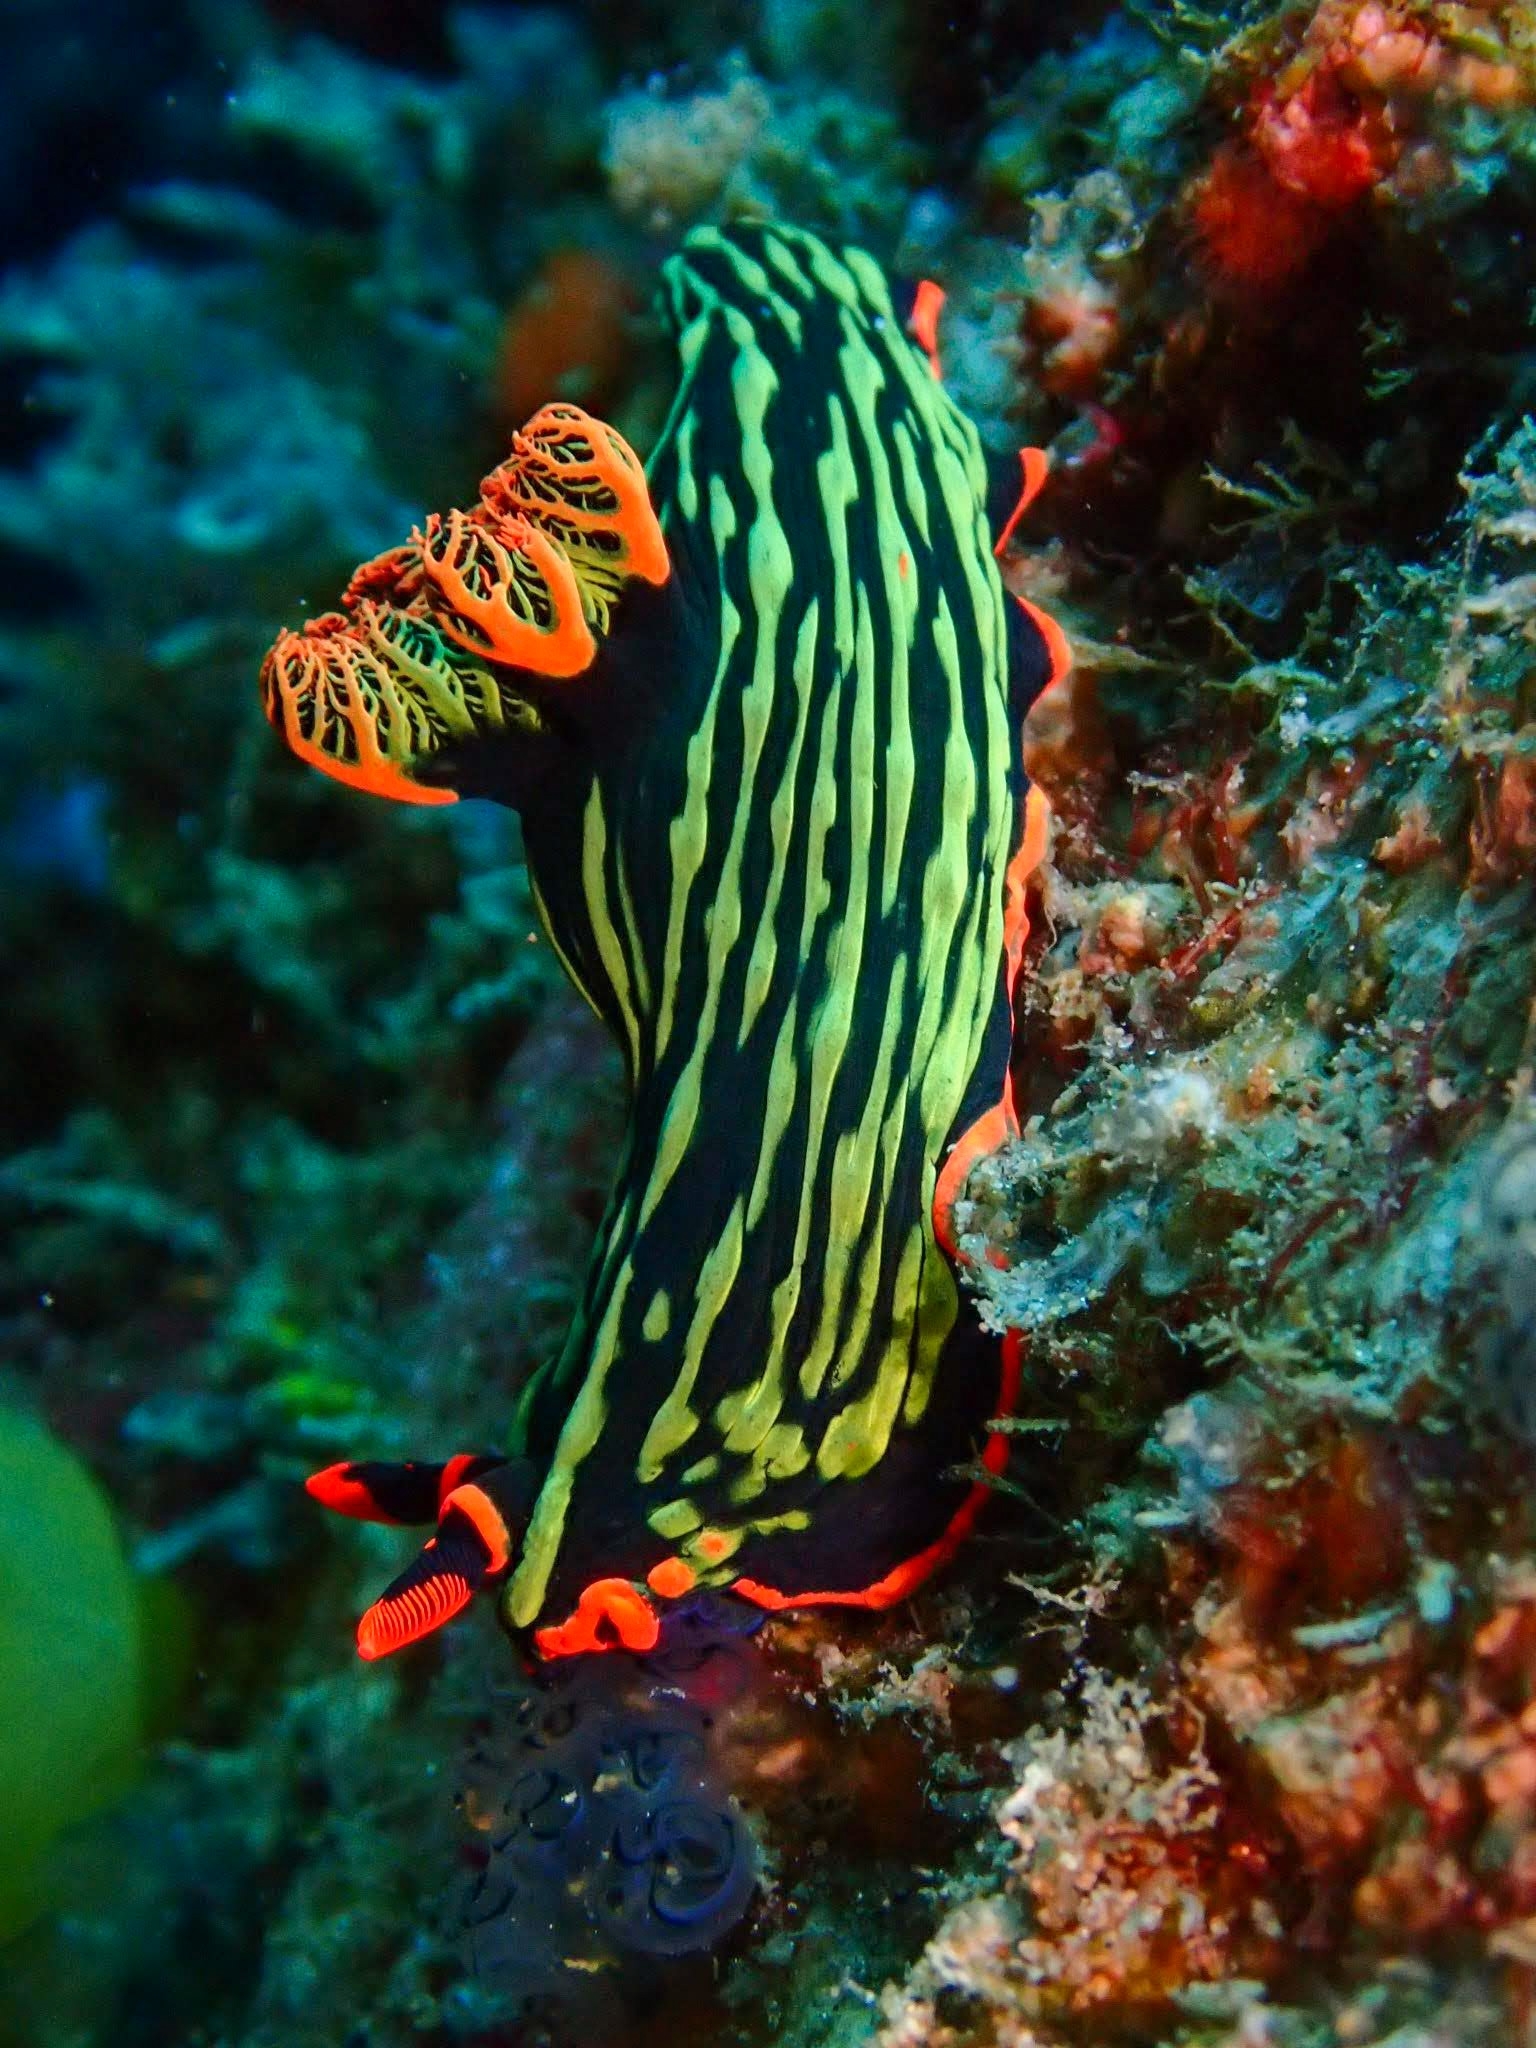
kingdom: Animalia
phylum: Mollusca
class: Gastropoda
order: Nudibranchia
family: Polyceridae
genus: Nembrotha
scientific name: Nembrotha kubaryana
